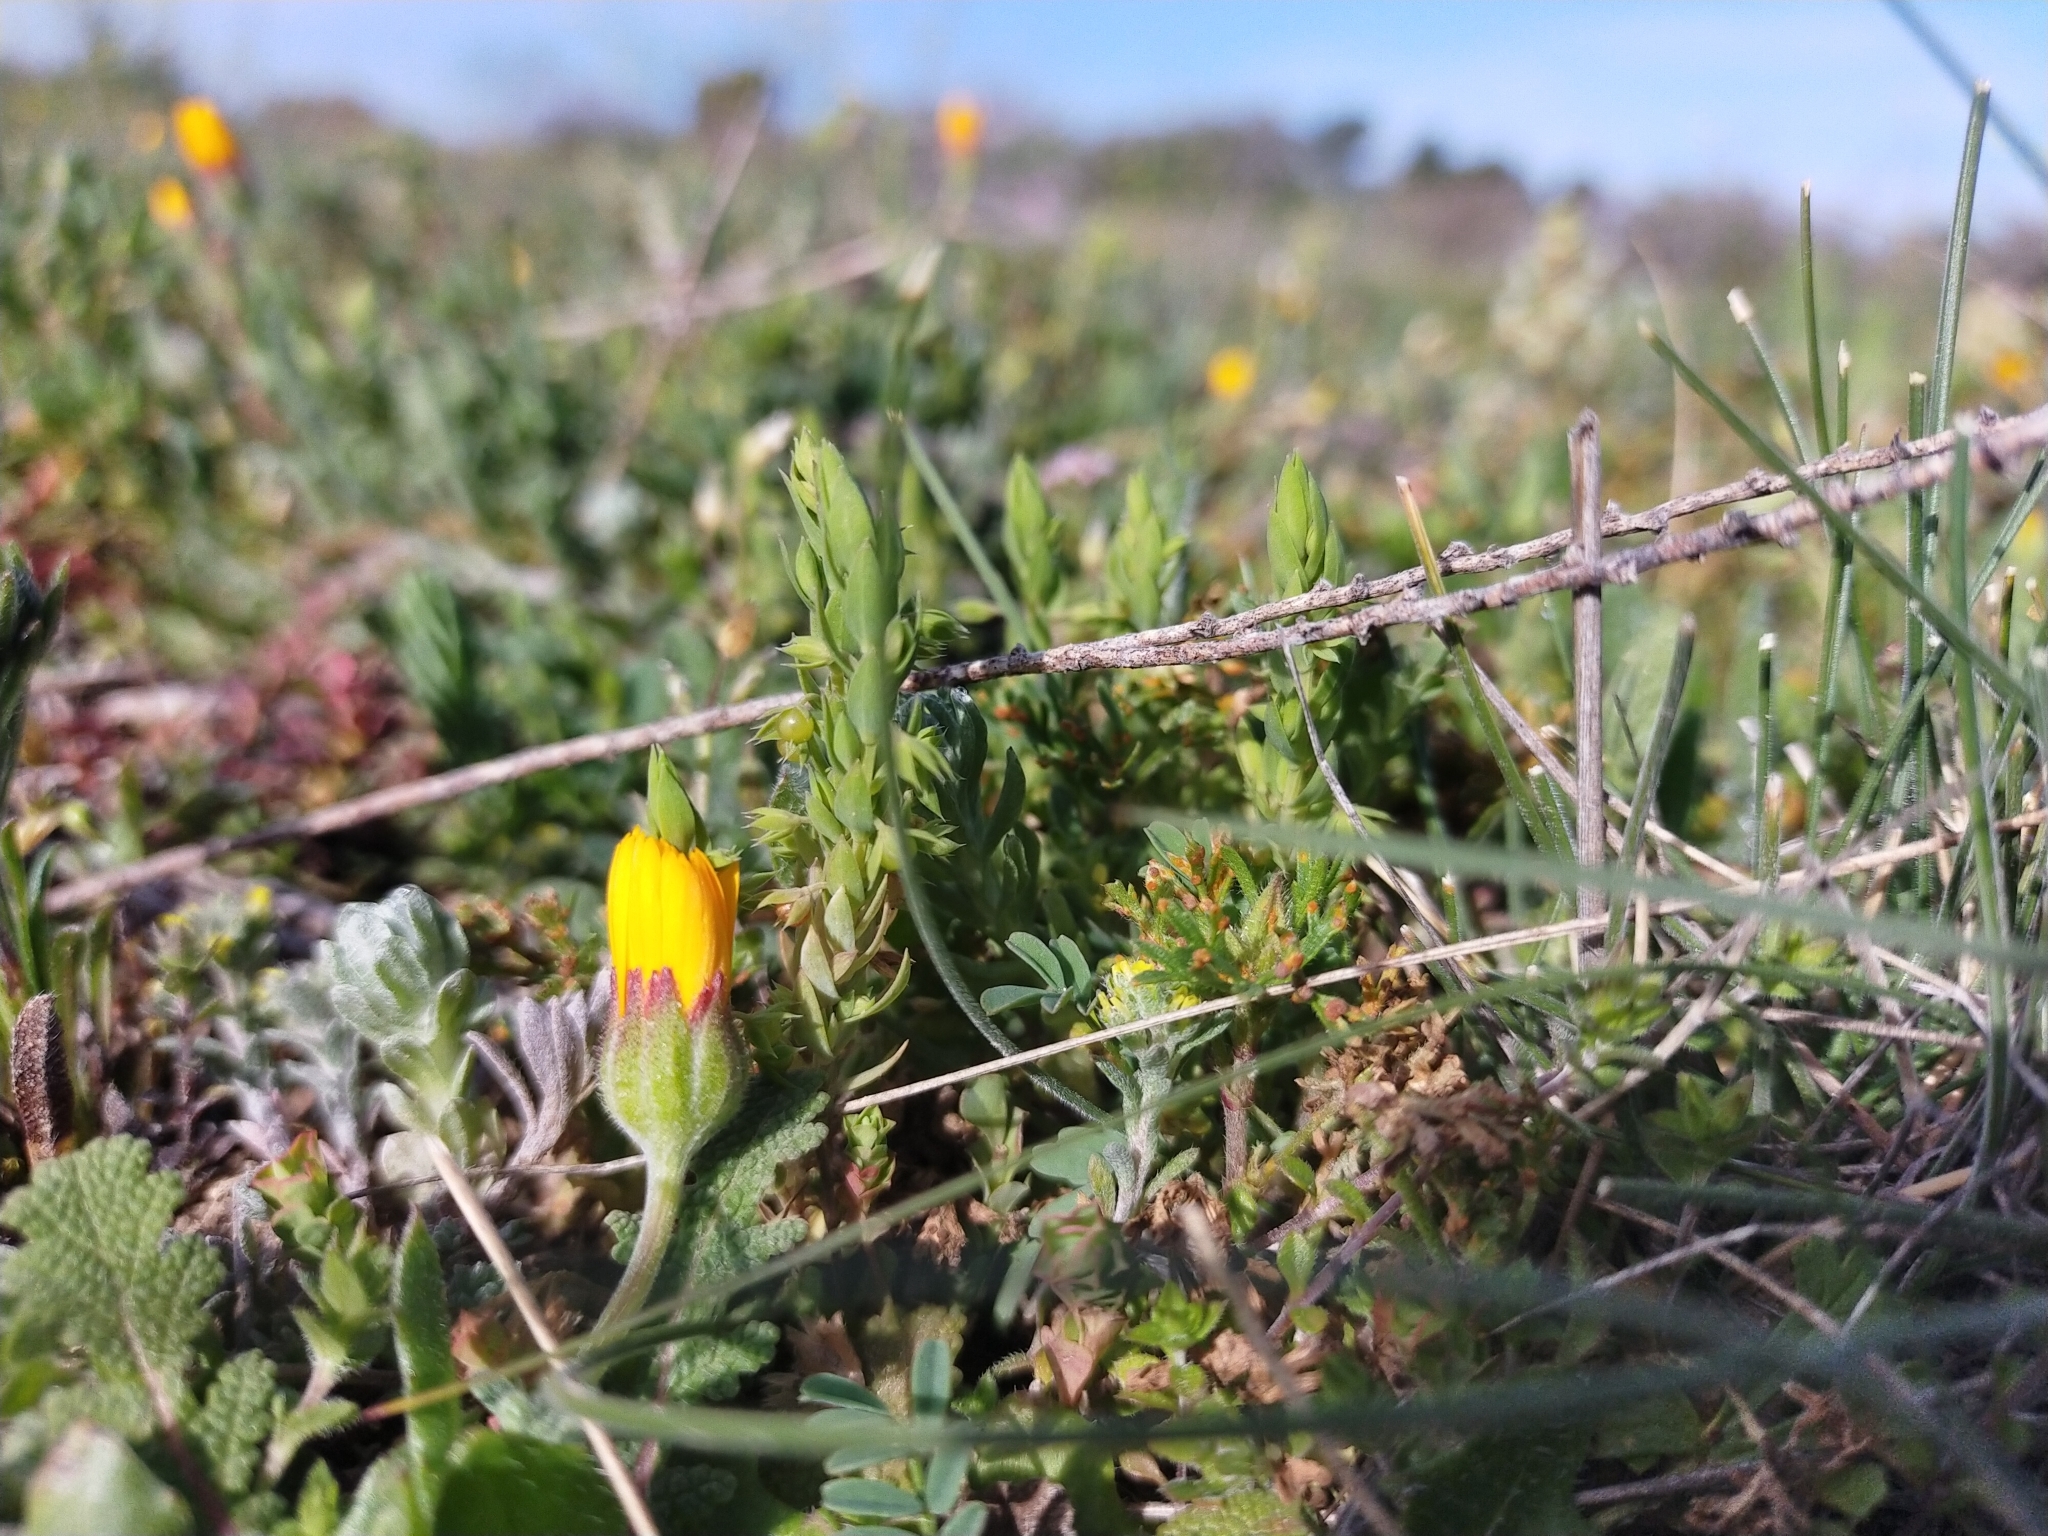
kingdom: Plantae
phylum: Tracheophyta
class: Magnoliopsida
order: Ericales
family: Primulaceae
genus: Lysimachia
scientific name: Lysimachia linum-stellatum
